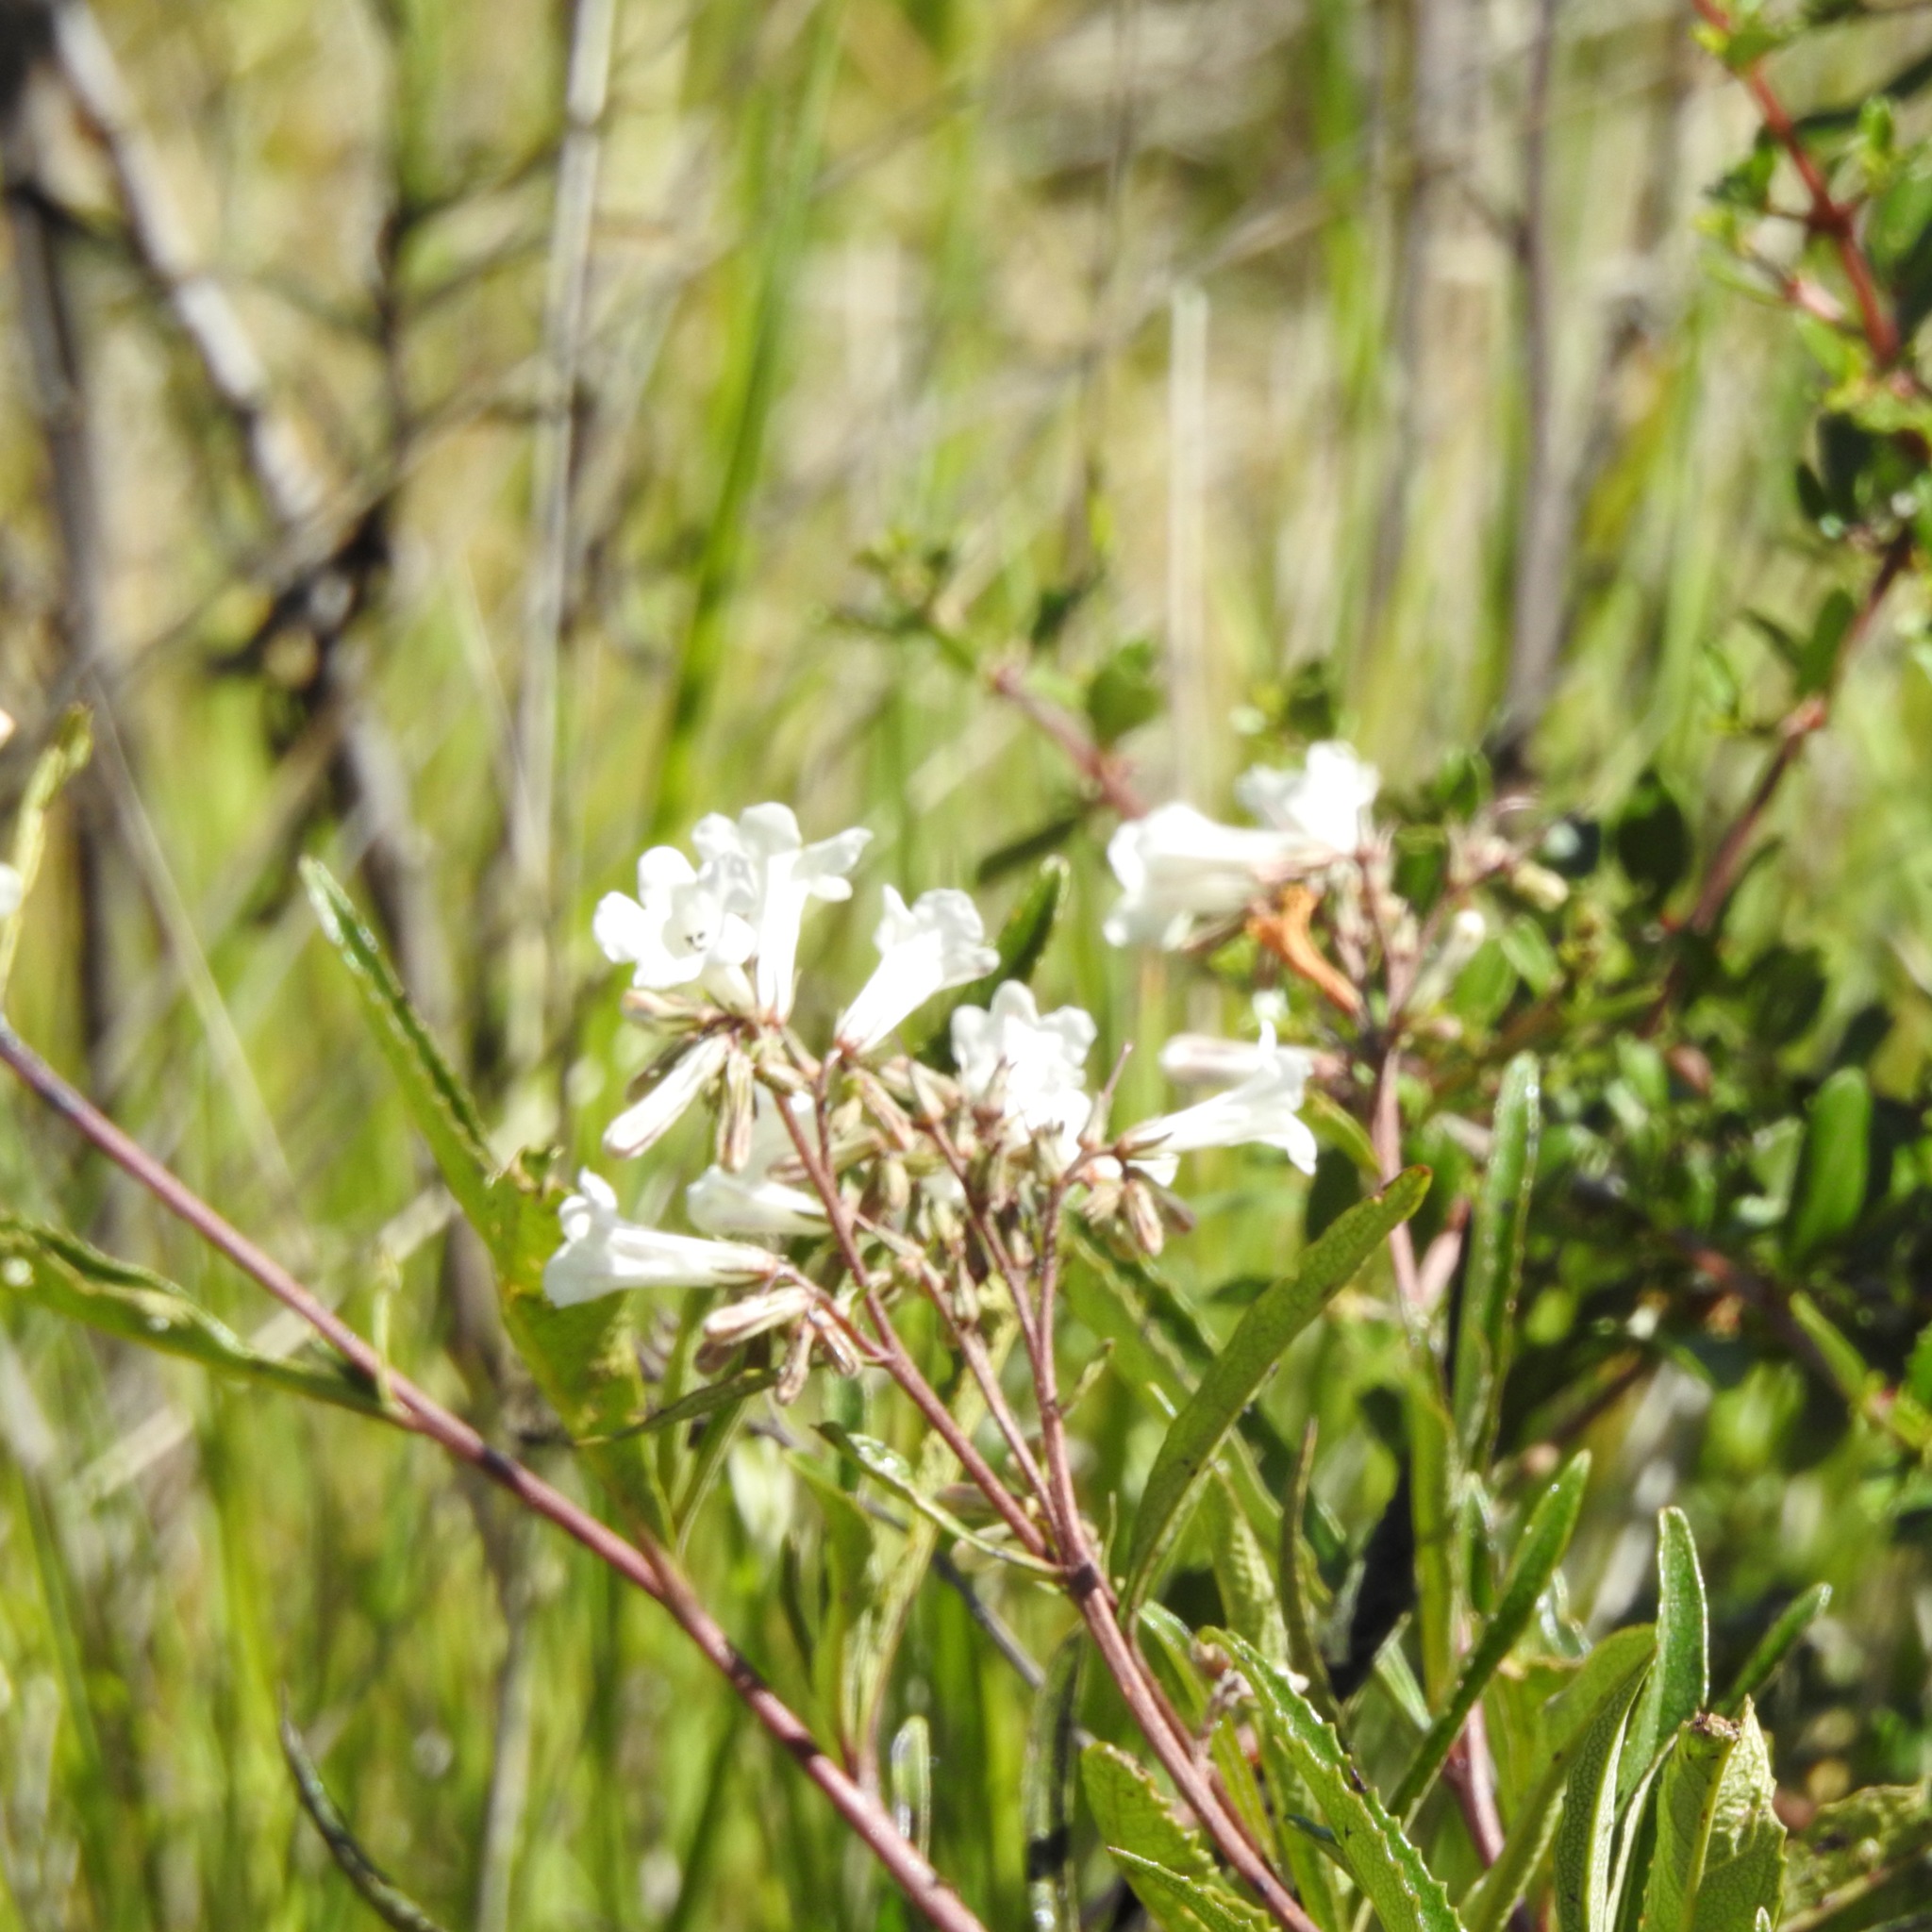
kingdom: Plantae
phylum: Tracheophyta
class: Magnoliopsida
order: Boraginales
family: Namaceae
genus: Eriodictyon
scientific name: Eriodictyon californicum
